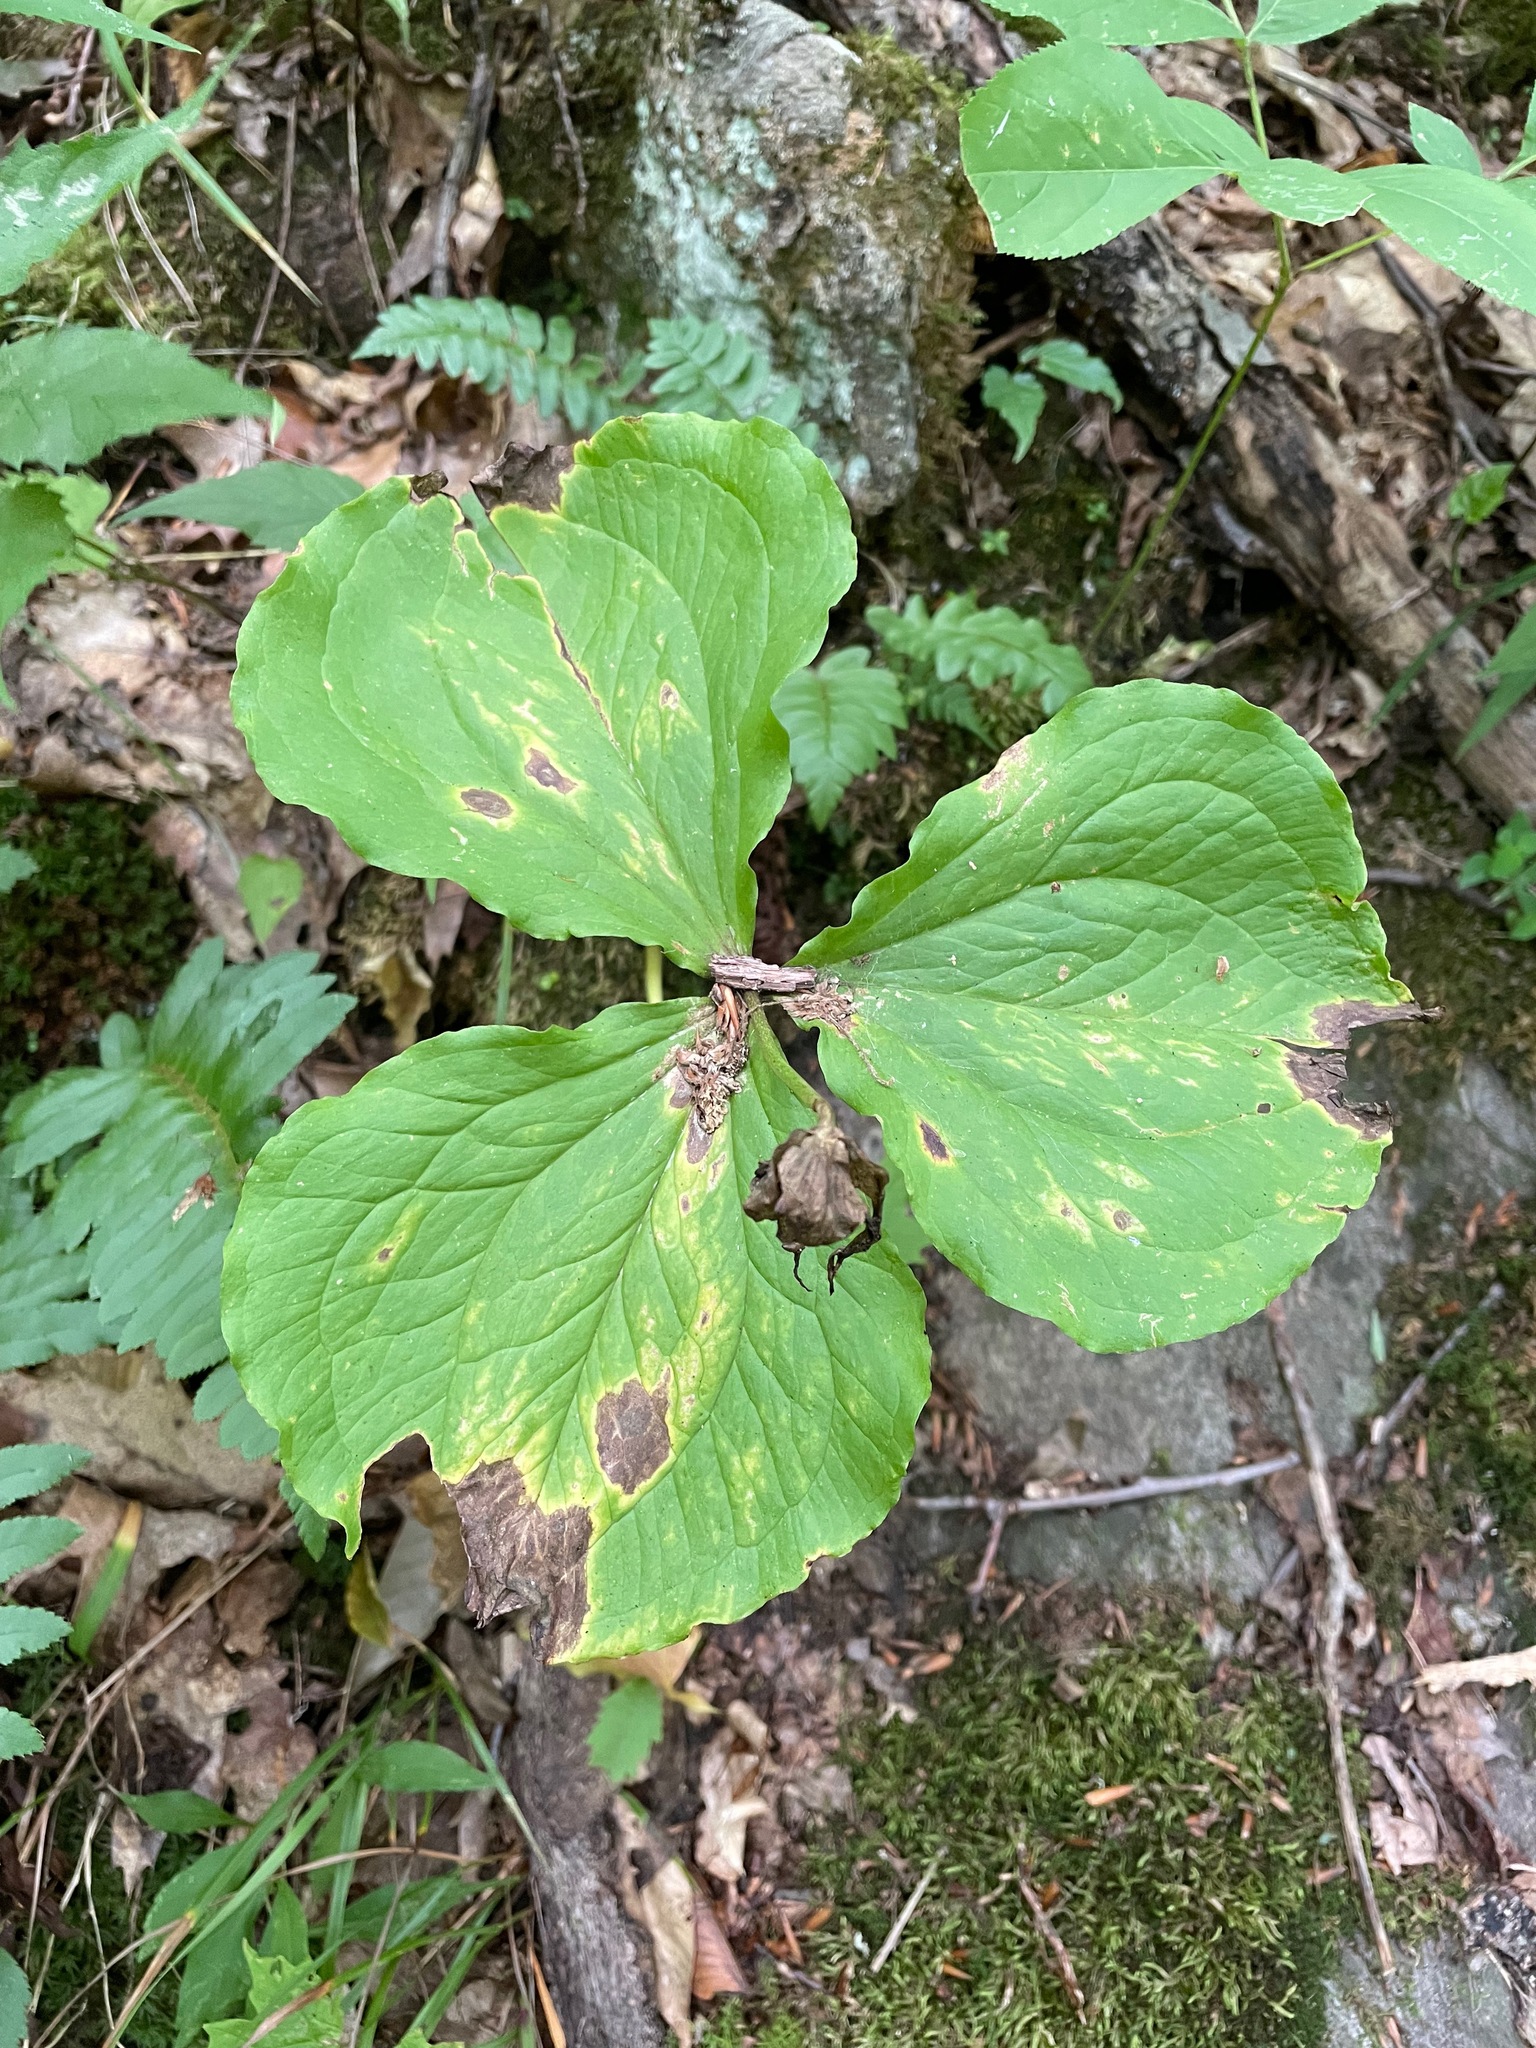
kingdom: Plantae
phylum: Tracheophyta
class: Liliopsida
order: Liliales
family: Melanthiaceae
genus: Trillium
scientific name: Trillium erectum
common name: Purple trillium
